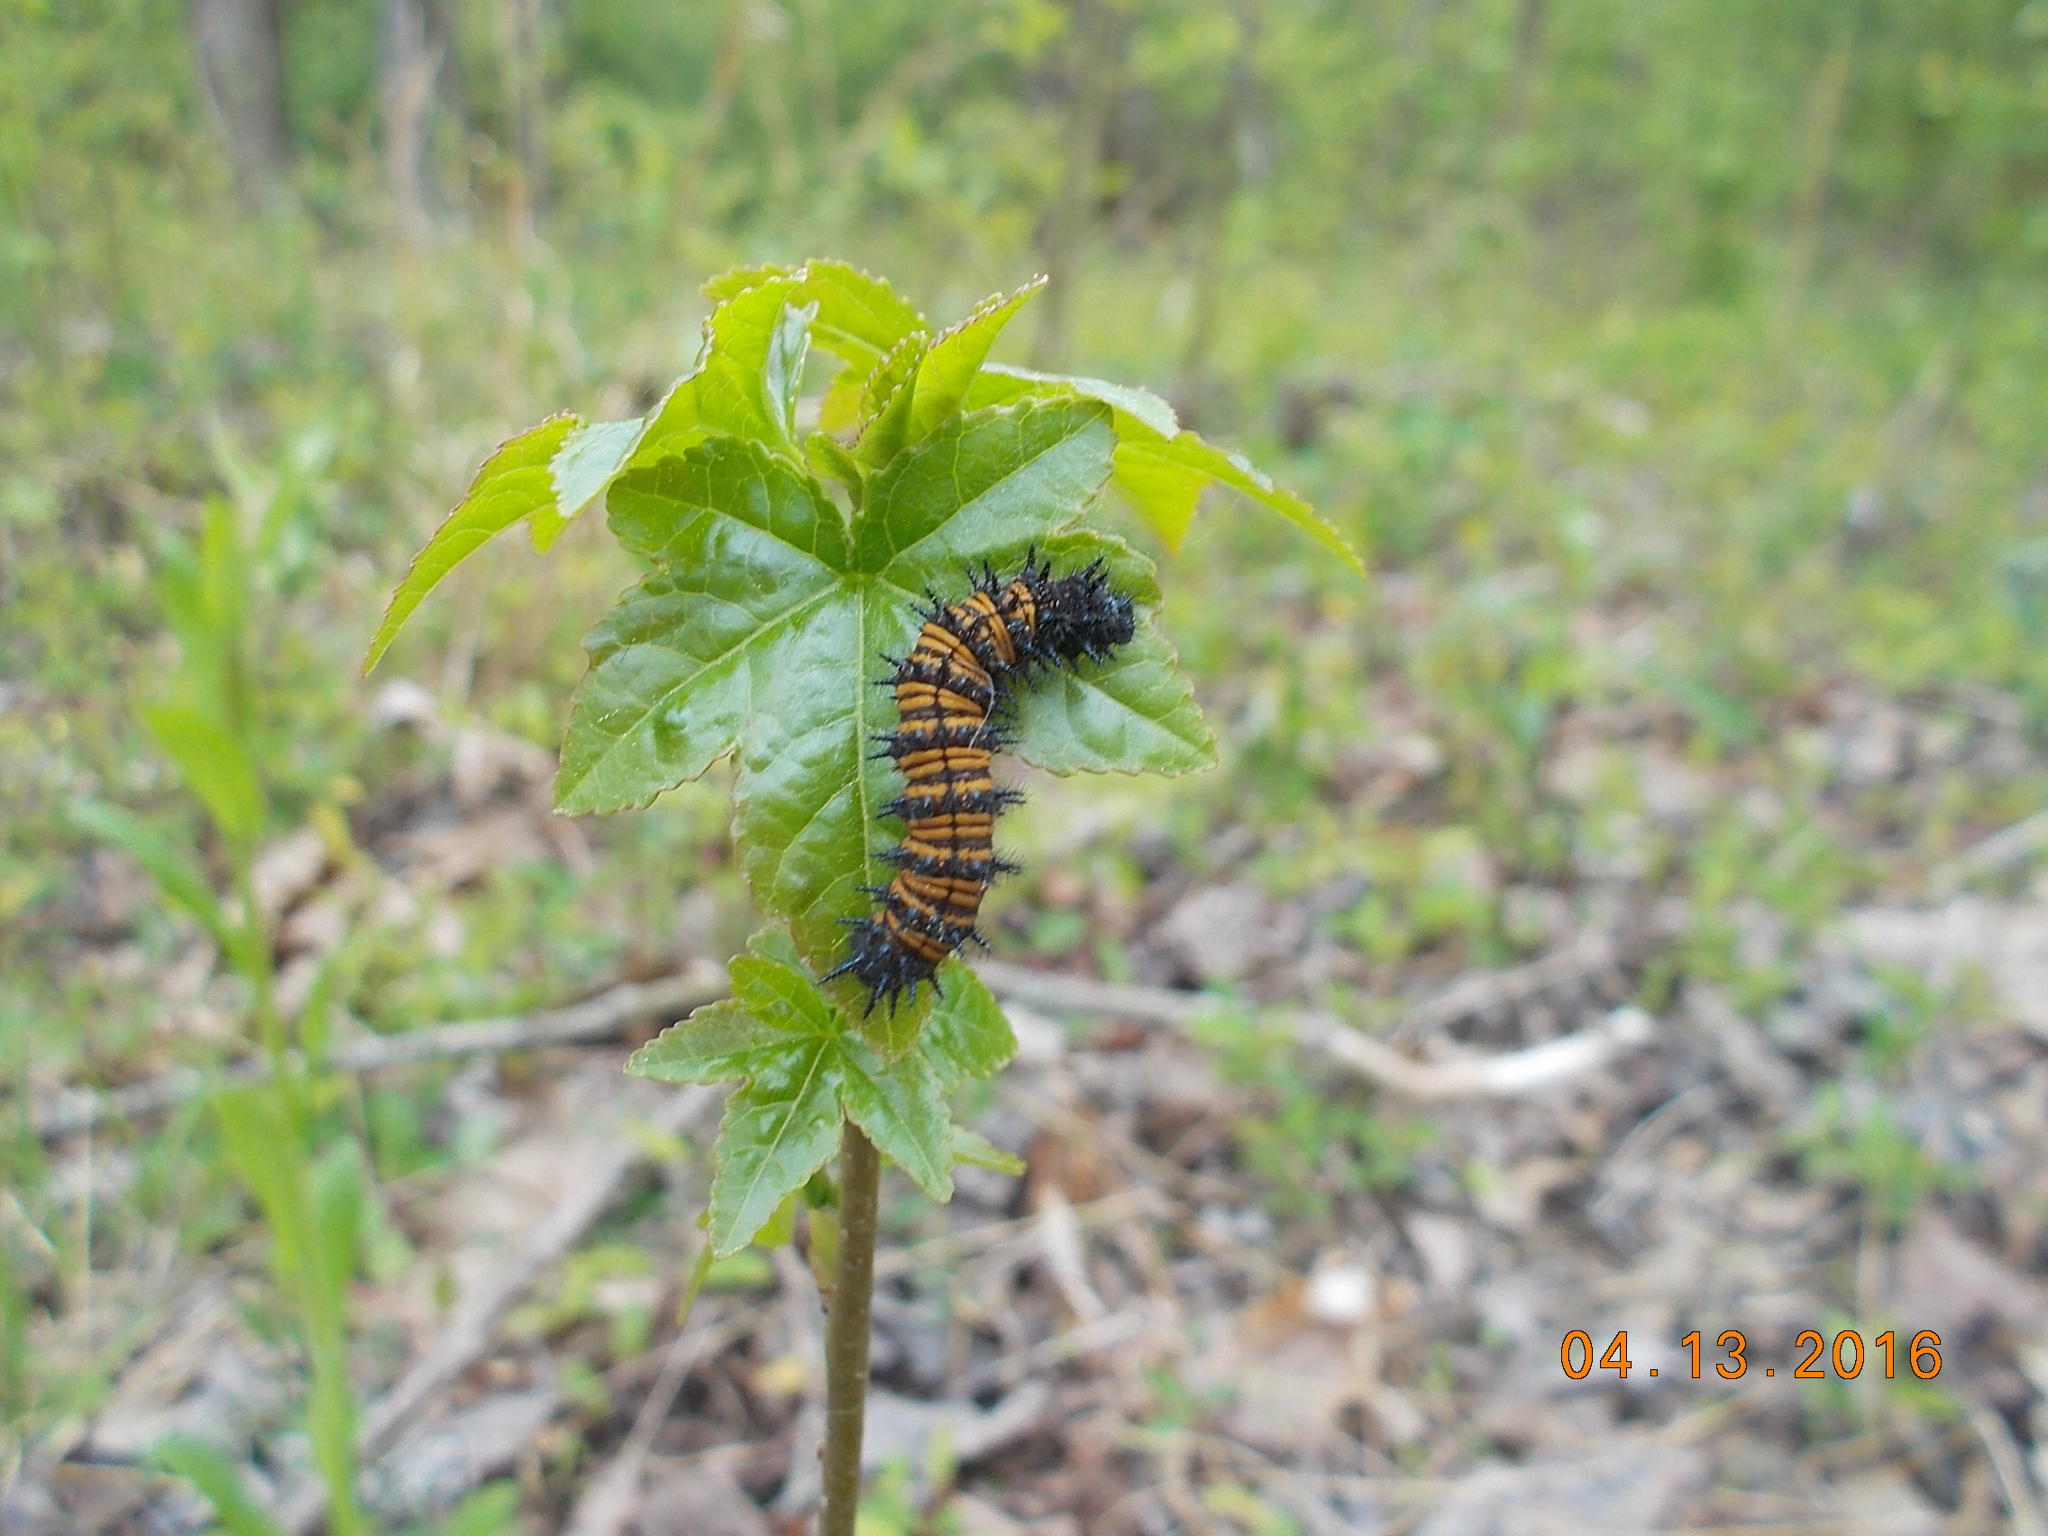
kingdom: Animalia
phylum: Arthropoda
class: Insecta
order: Lepidoptera
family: Nymphalidae
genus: Euphydryas
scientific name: Euphydryas phaeton
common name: Baltimore checkerspot
